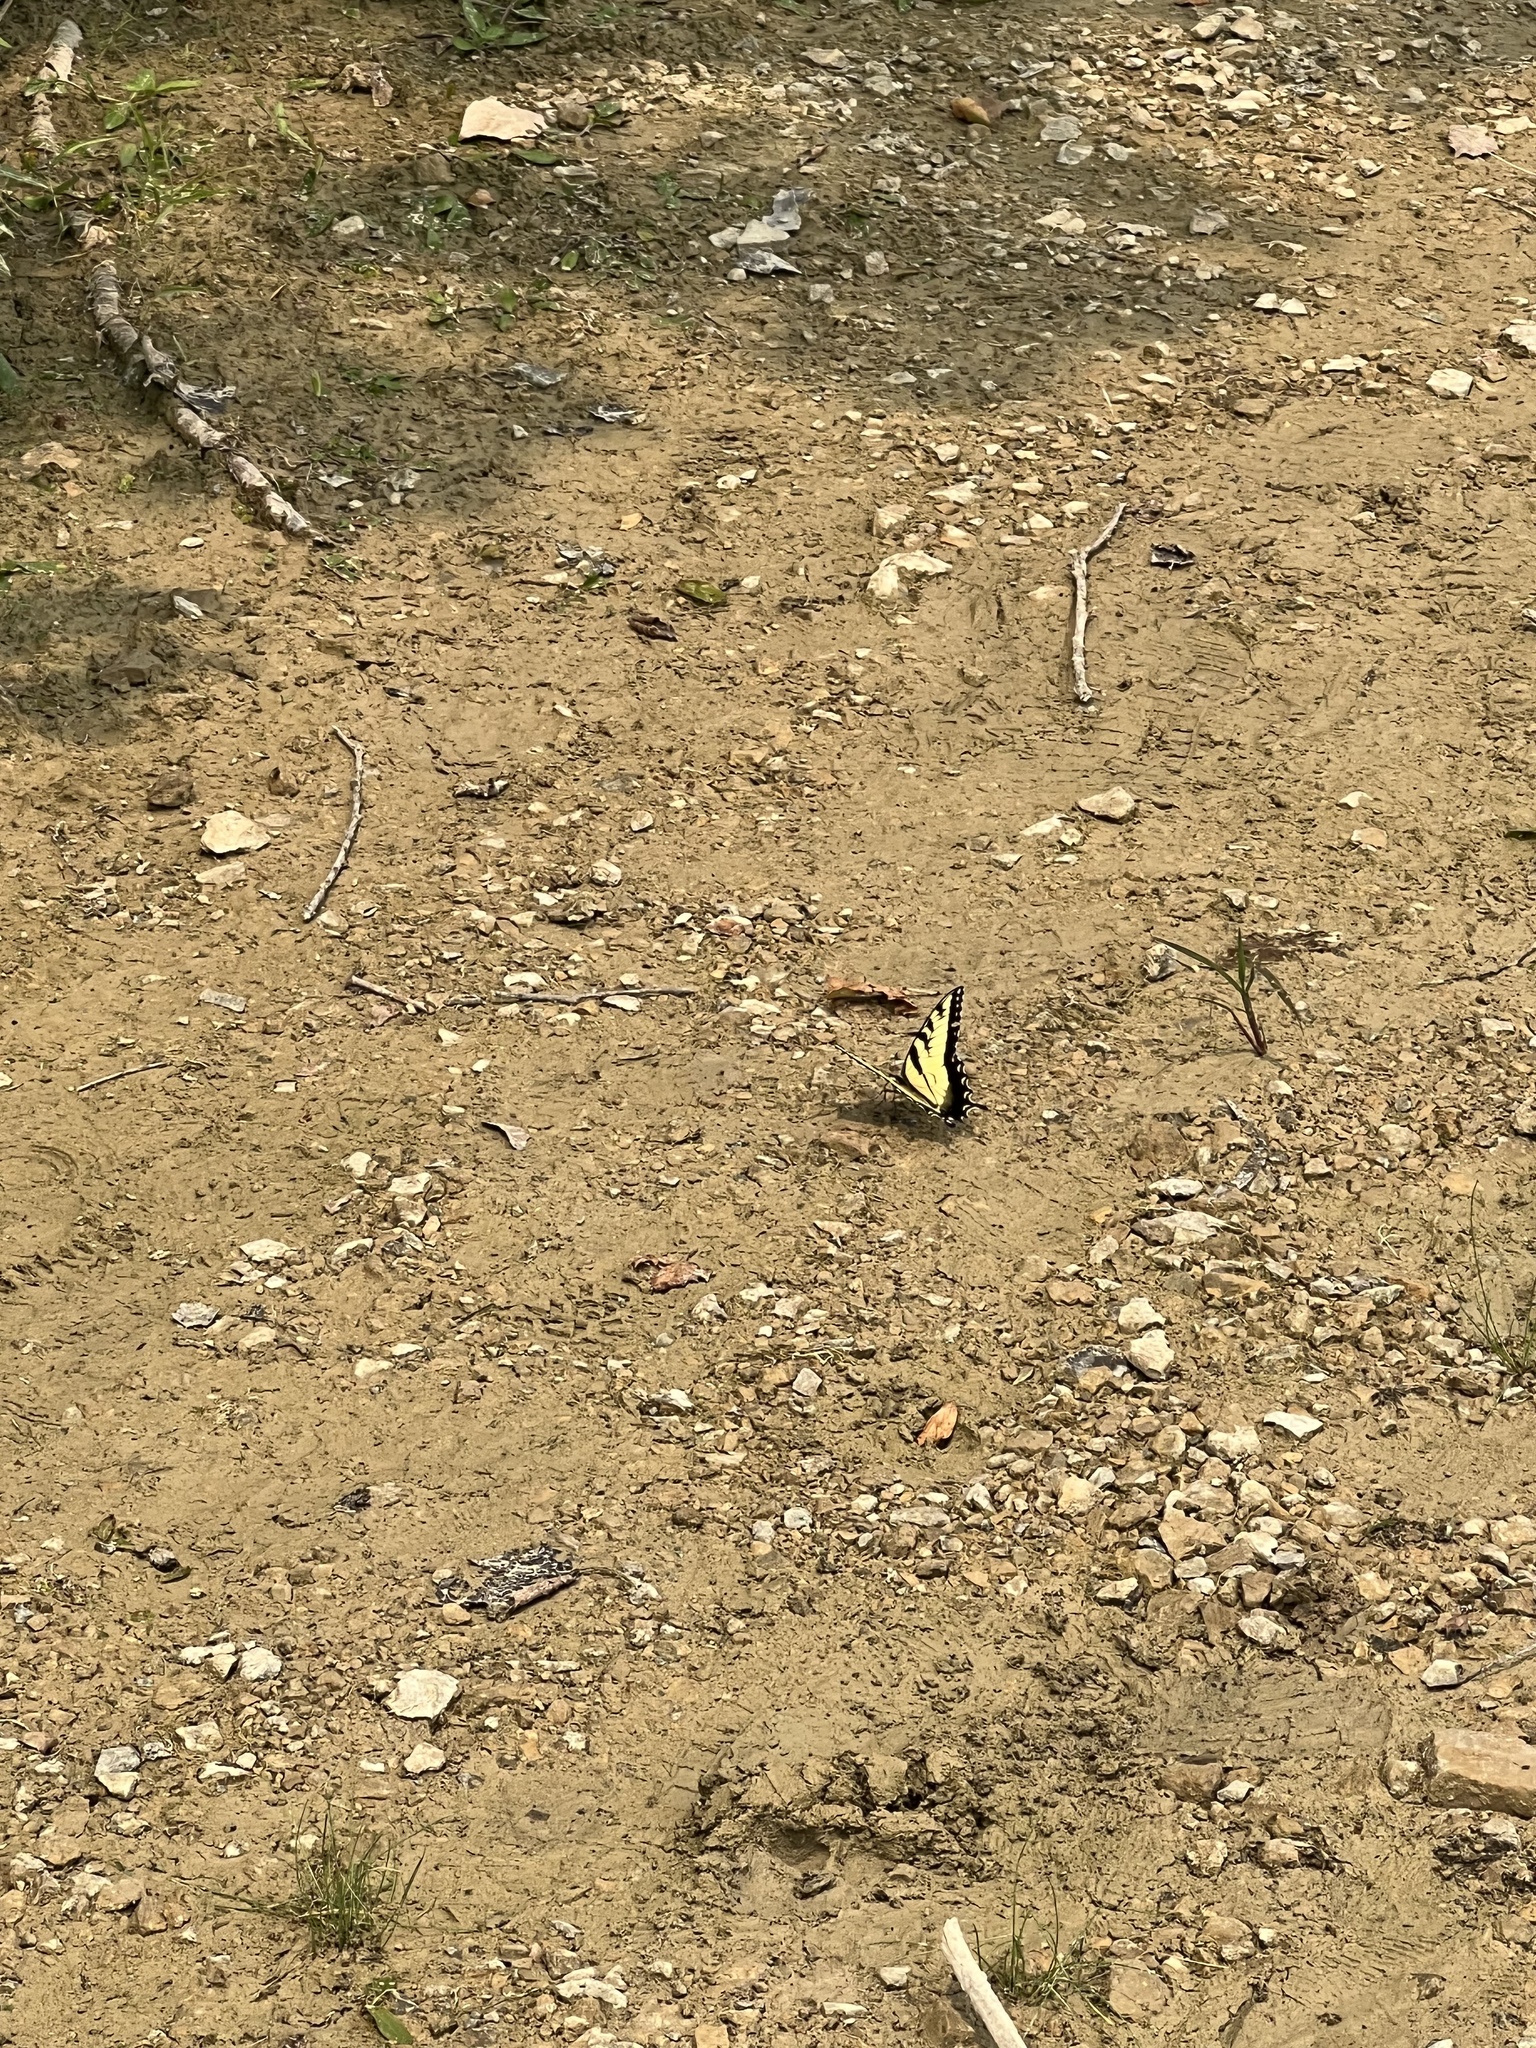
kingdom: Animalia
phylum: Arthropoda
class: Insecta
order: Lepidoptera
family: Papilionidae
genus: Papilio
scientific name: Papilio glaucus
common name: Tiger swallowtail
